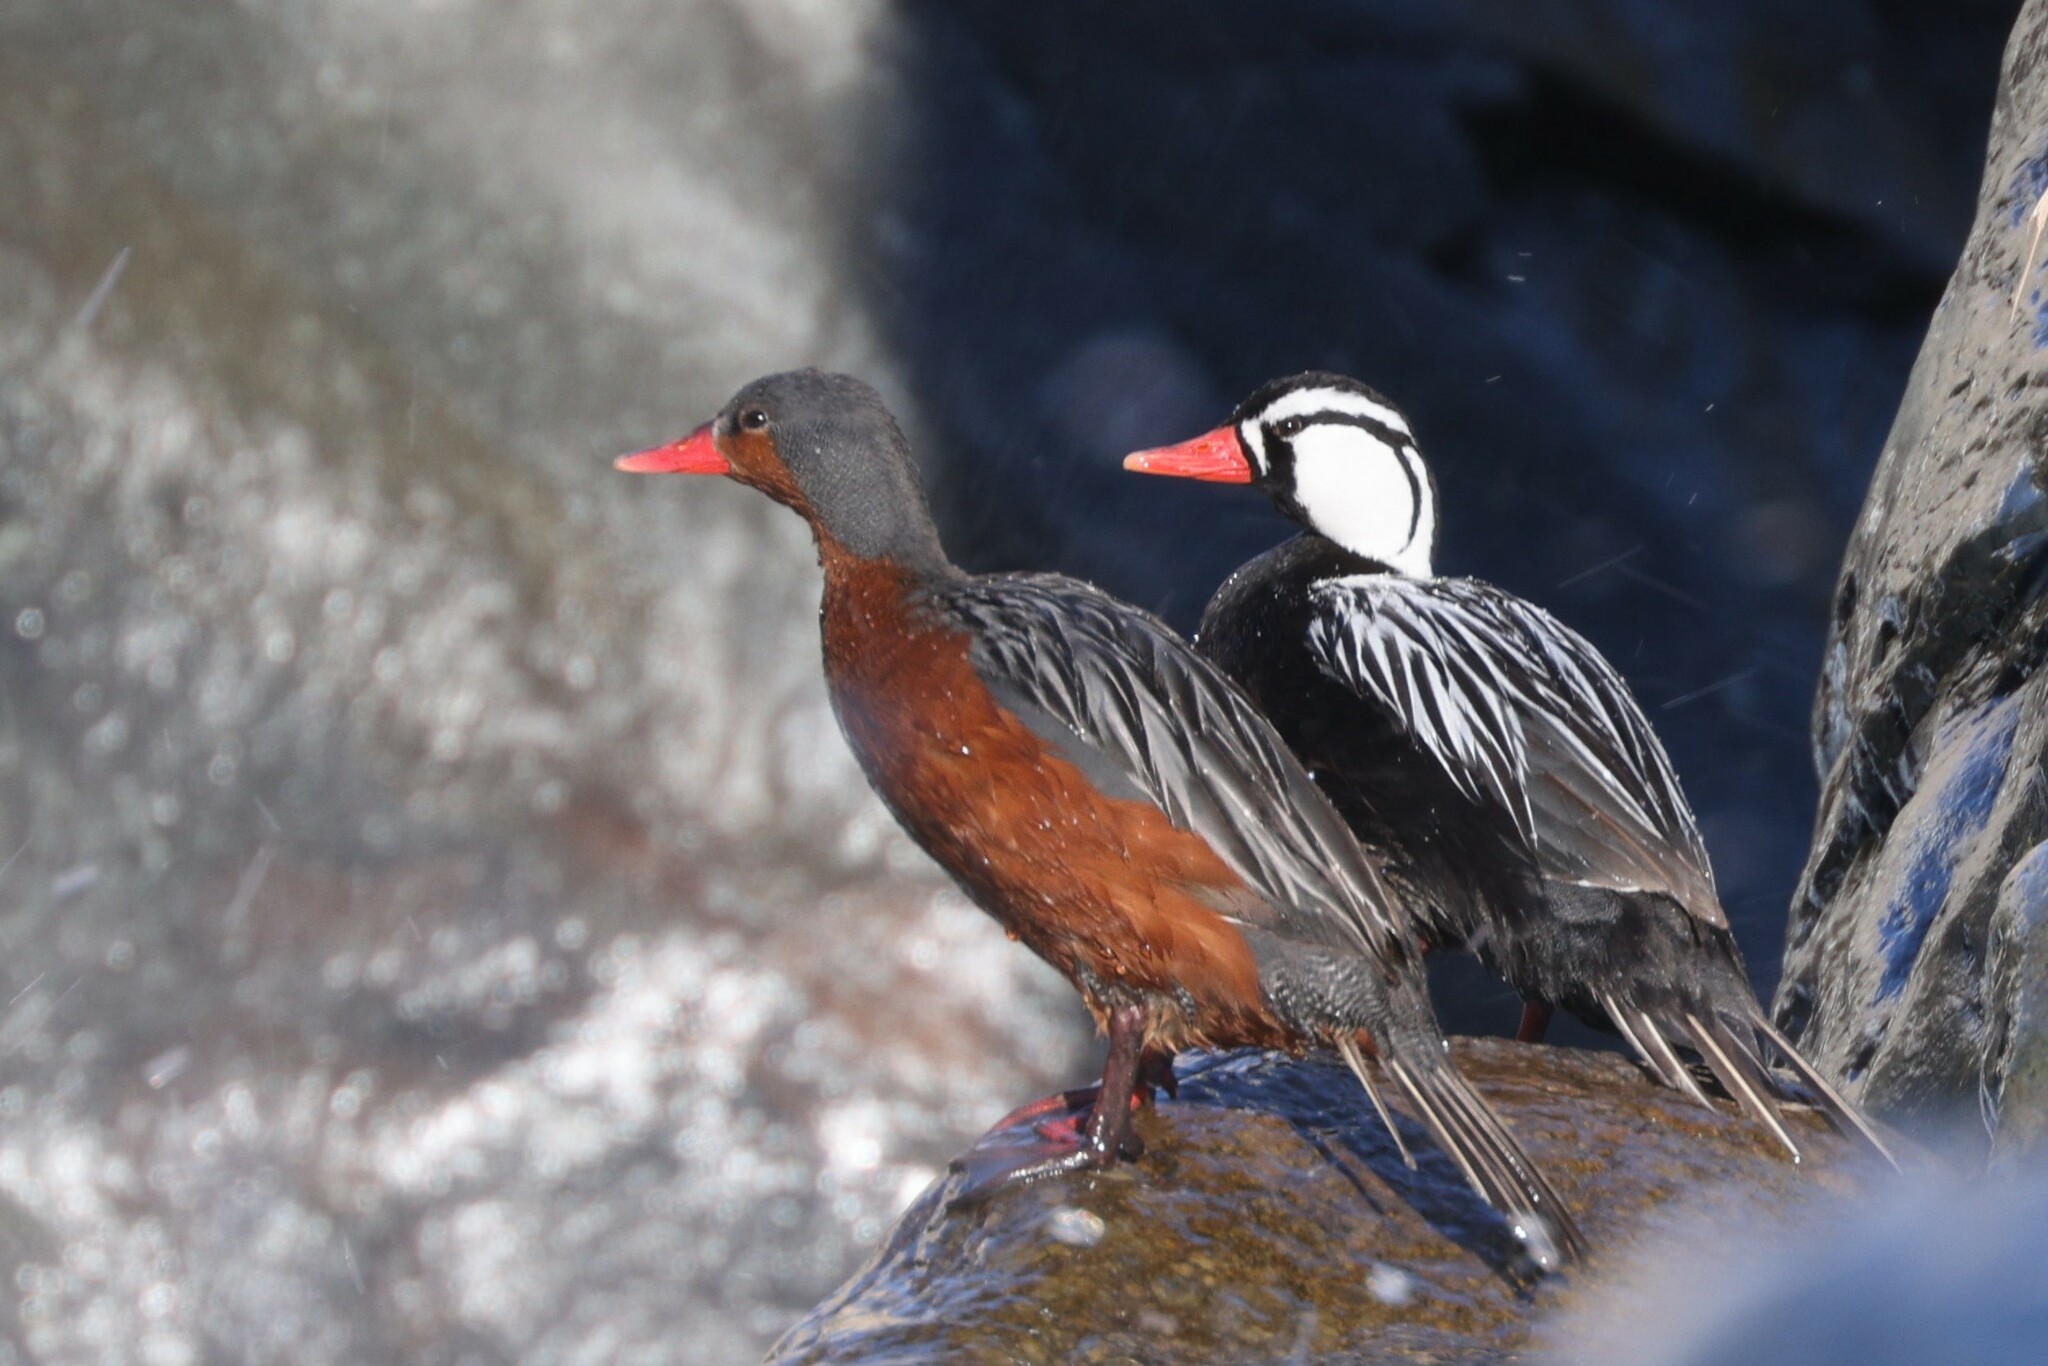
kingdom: Animalia
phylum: Chordata
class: Aves
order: Anseriformes
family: Anatidae
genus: Merganetta
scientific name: Merganetta armata
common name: Torrent duck
